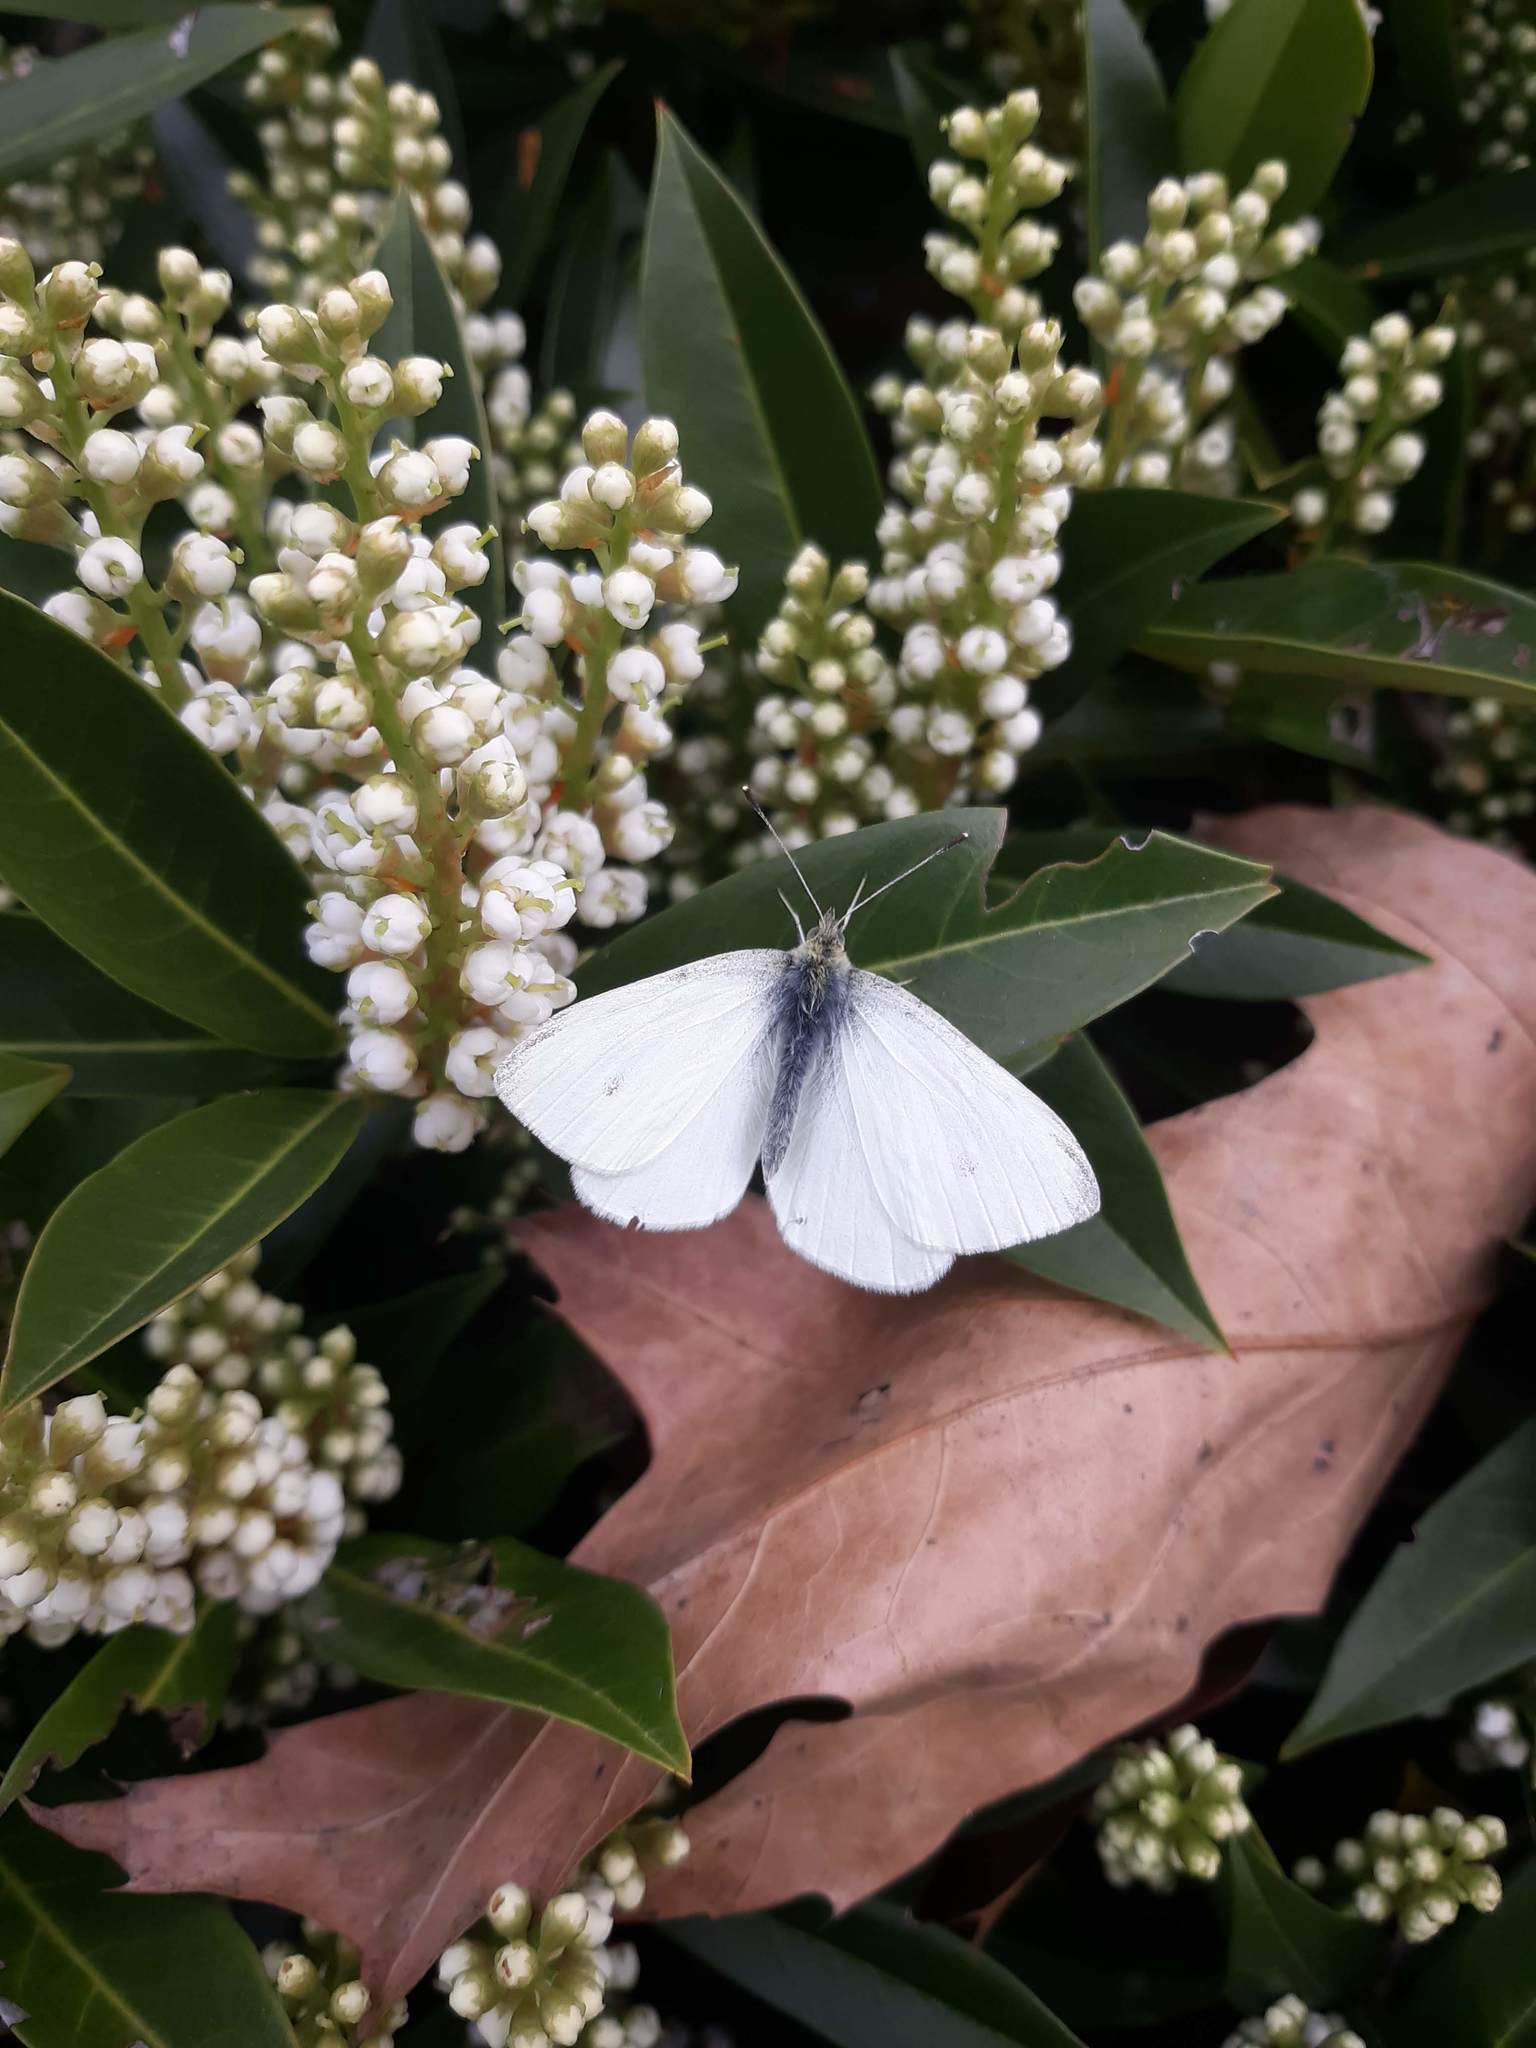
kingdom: Animalia
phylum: Arthropoda
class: Insecta
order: Lepidoptera
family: Pieridae
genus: Pieris
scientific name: Pieris rapae
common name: Small white
